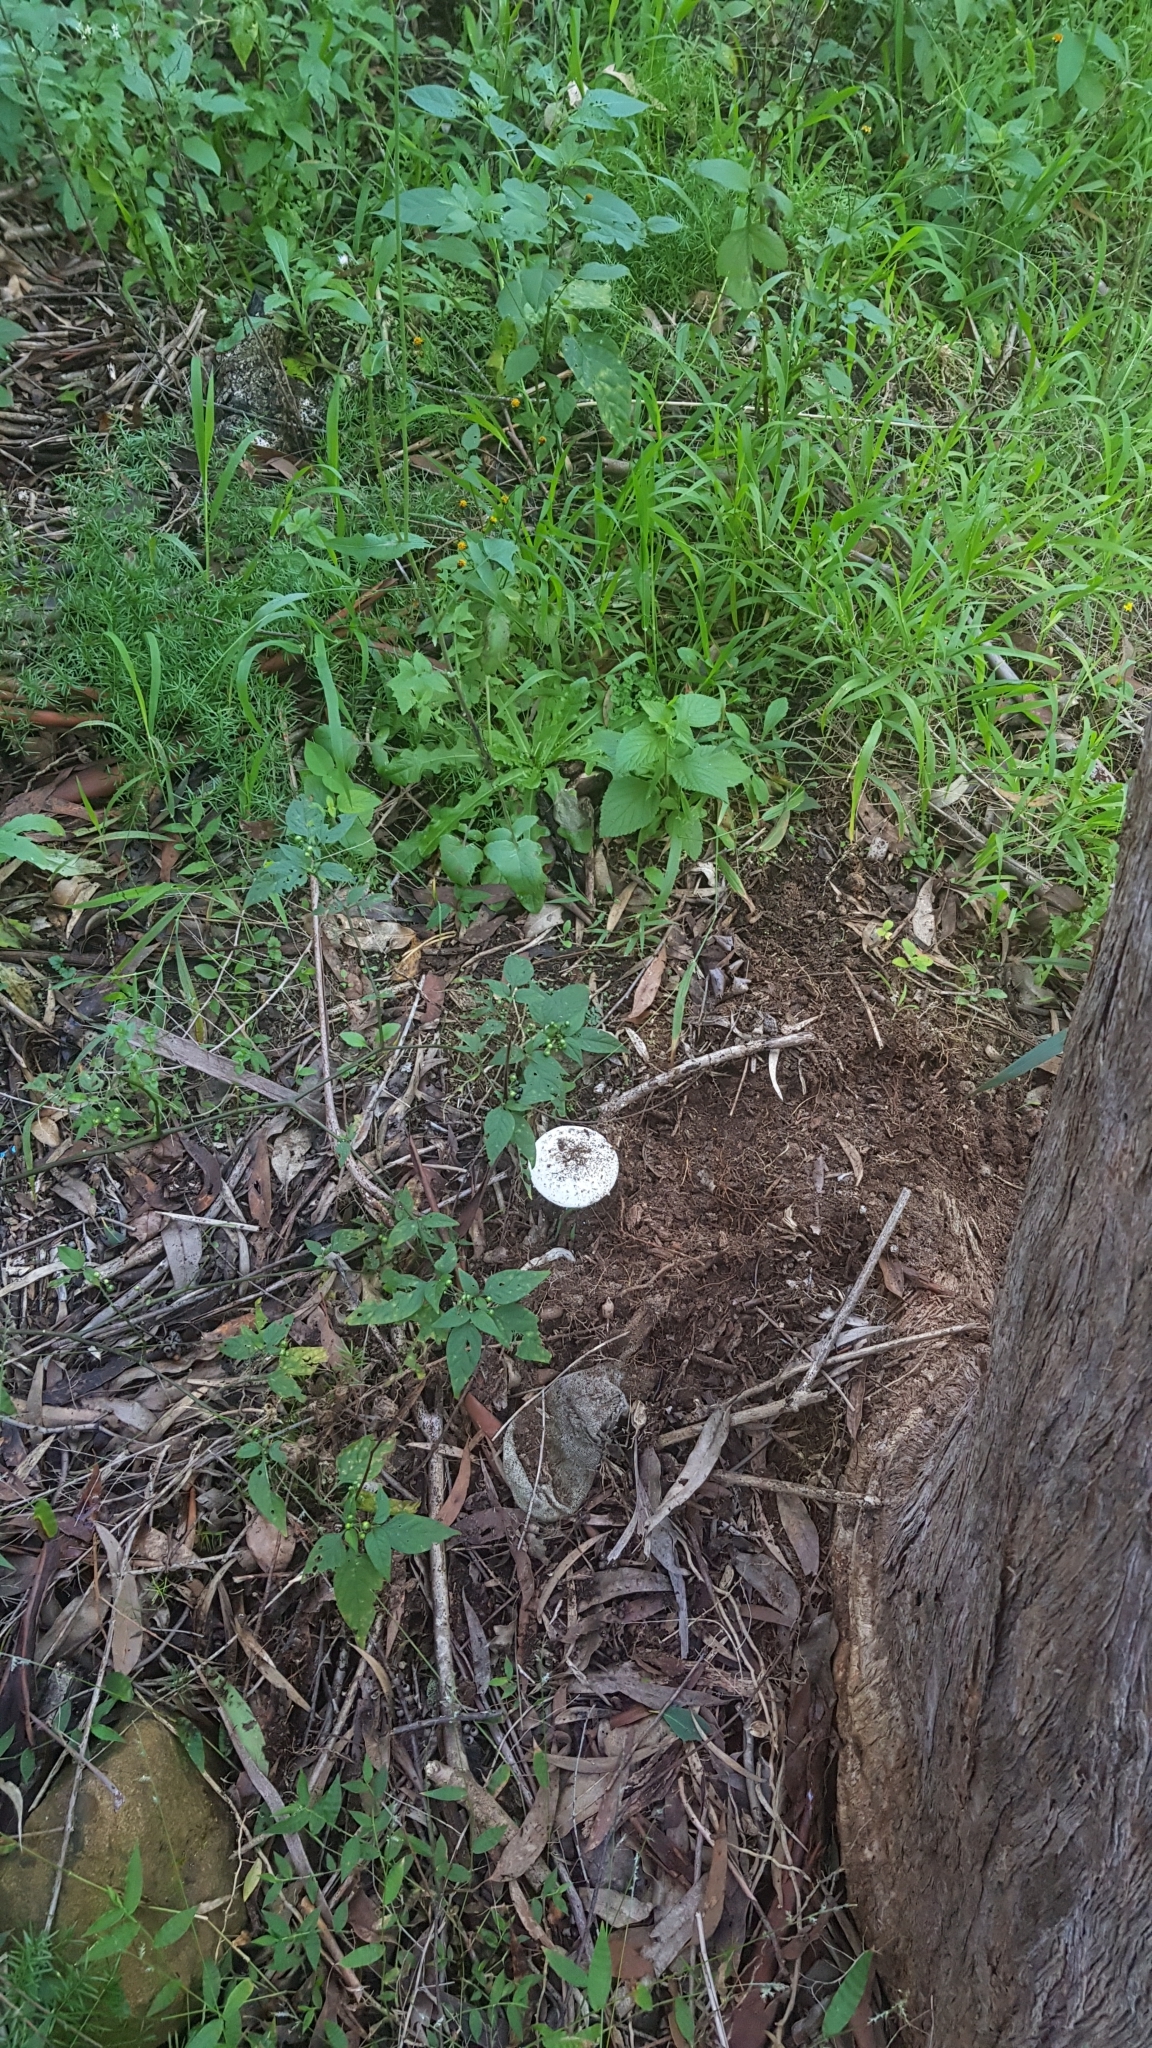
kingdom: Fungi
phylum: Basidiomycota
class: Agaricomycetes
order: Agaricales
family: Amanitaceae
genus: Amanita
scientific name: Amanita ananiceps
